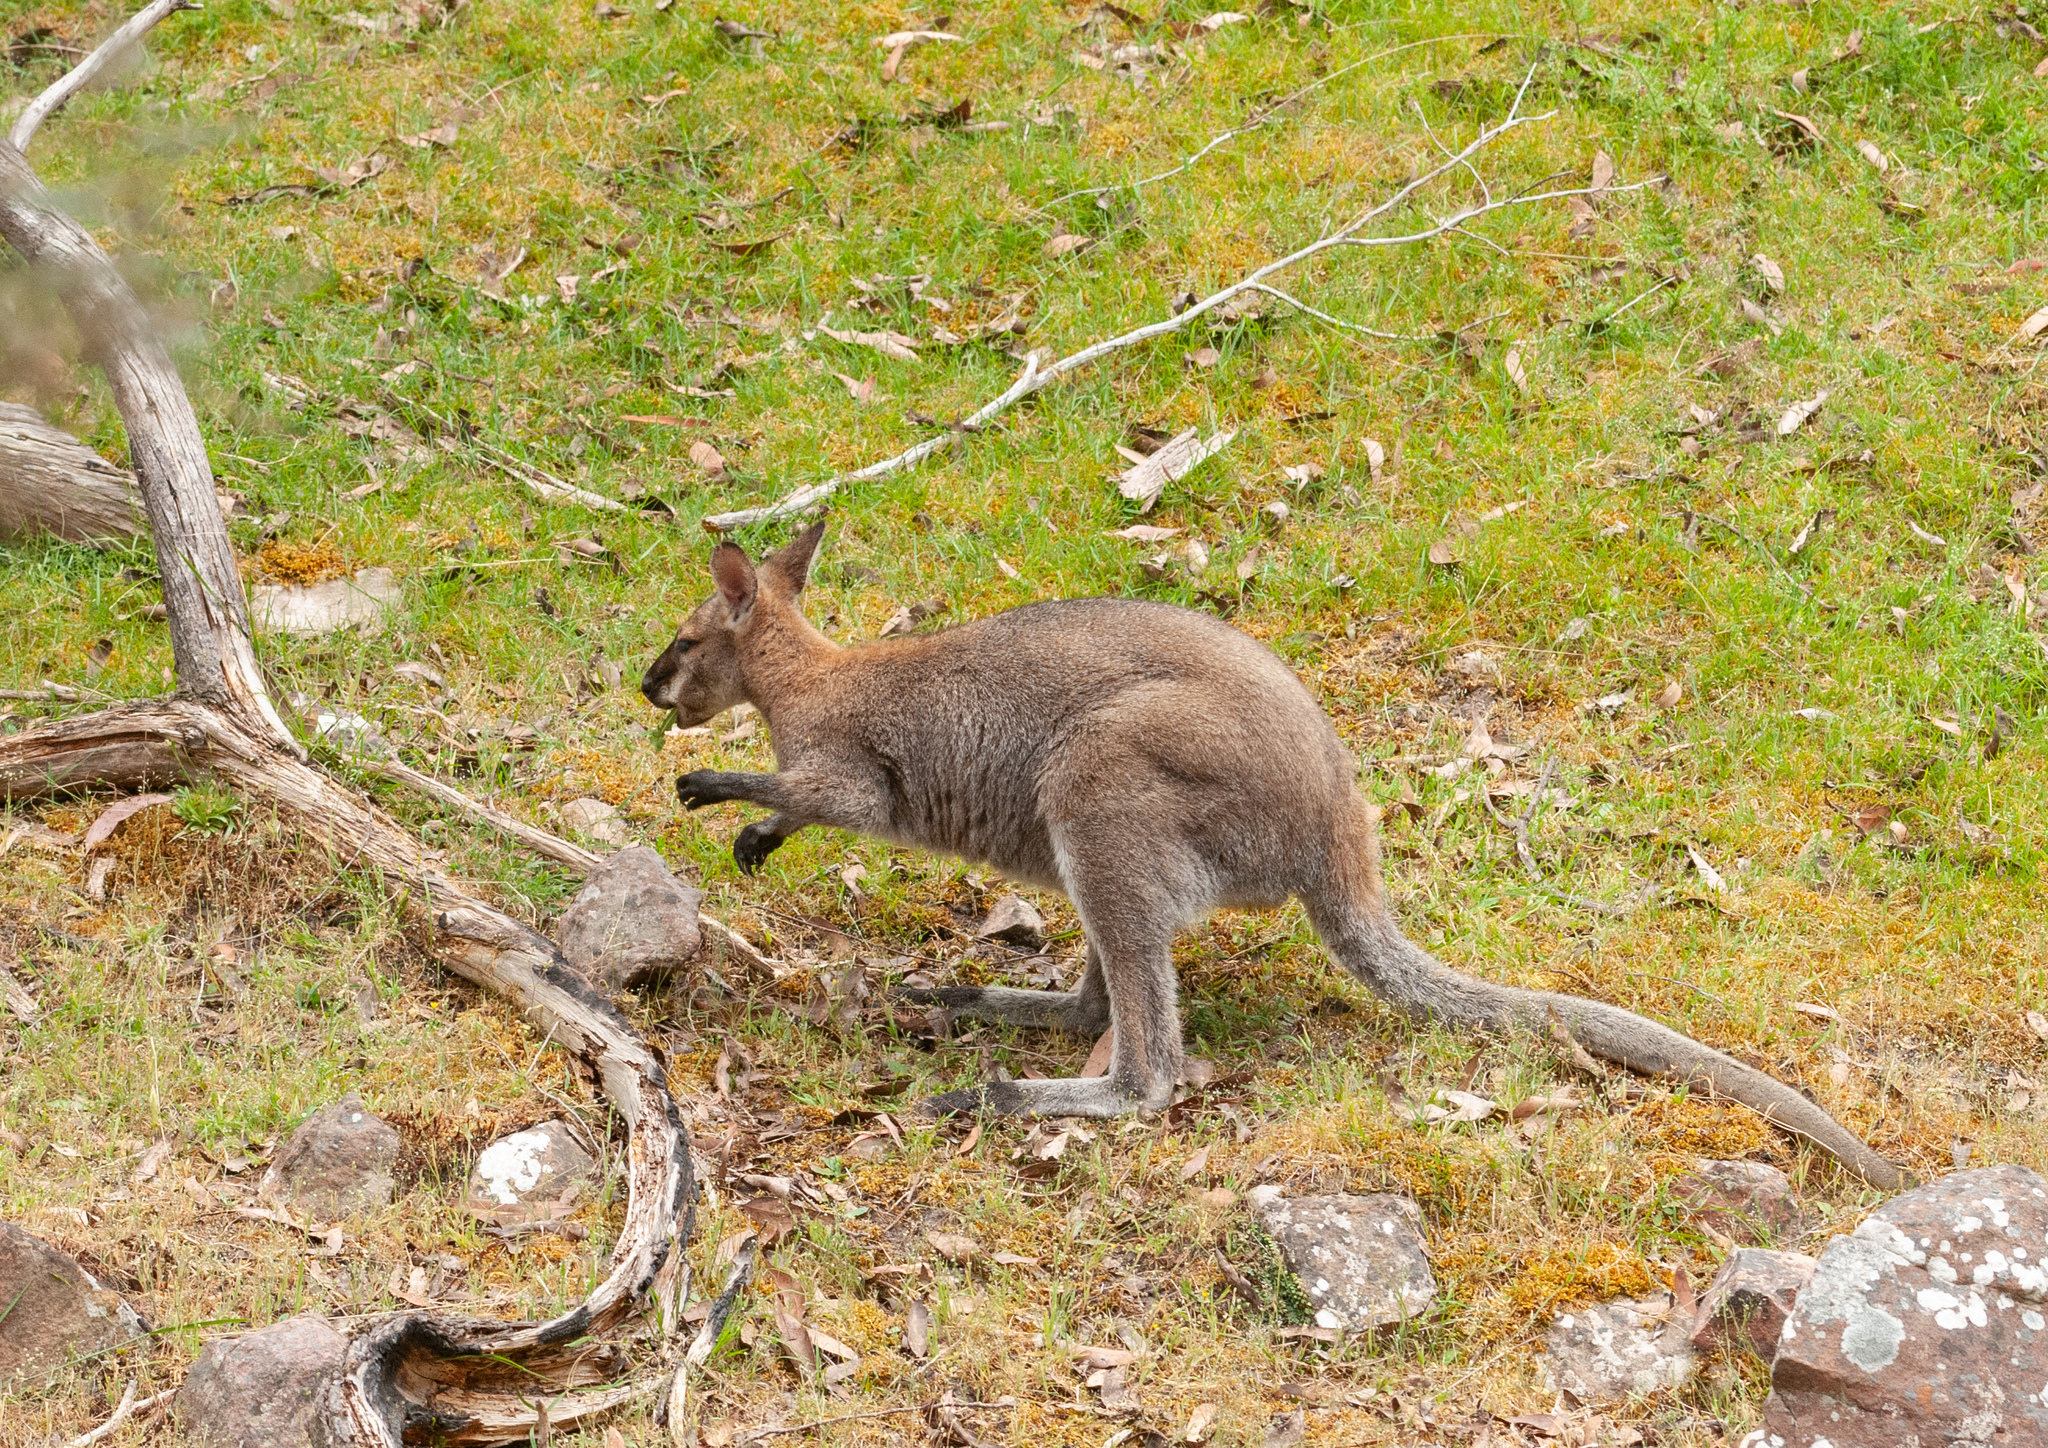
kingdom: Animalia
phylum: Chordata
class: Mammalia
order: Diprotodontia
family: Macropodidae
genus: Notamacropus
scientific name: Notamacropus rufogriseus
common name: Red-necked wallaby
